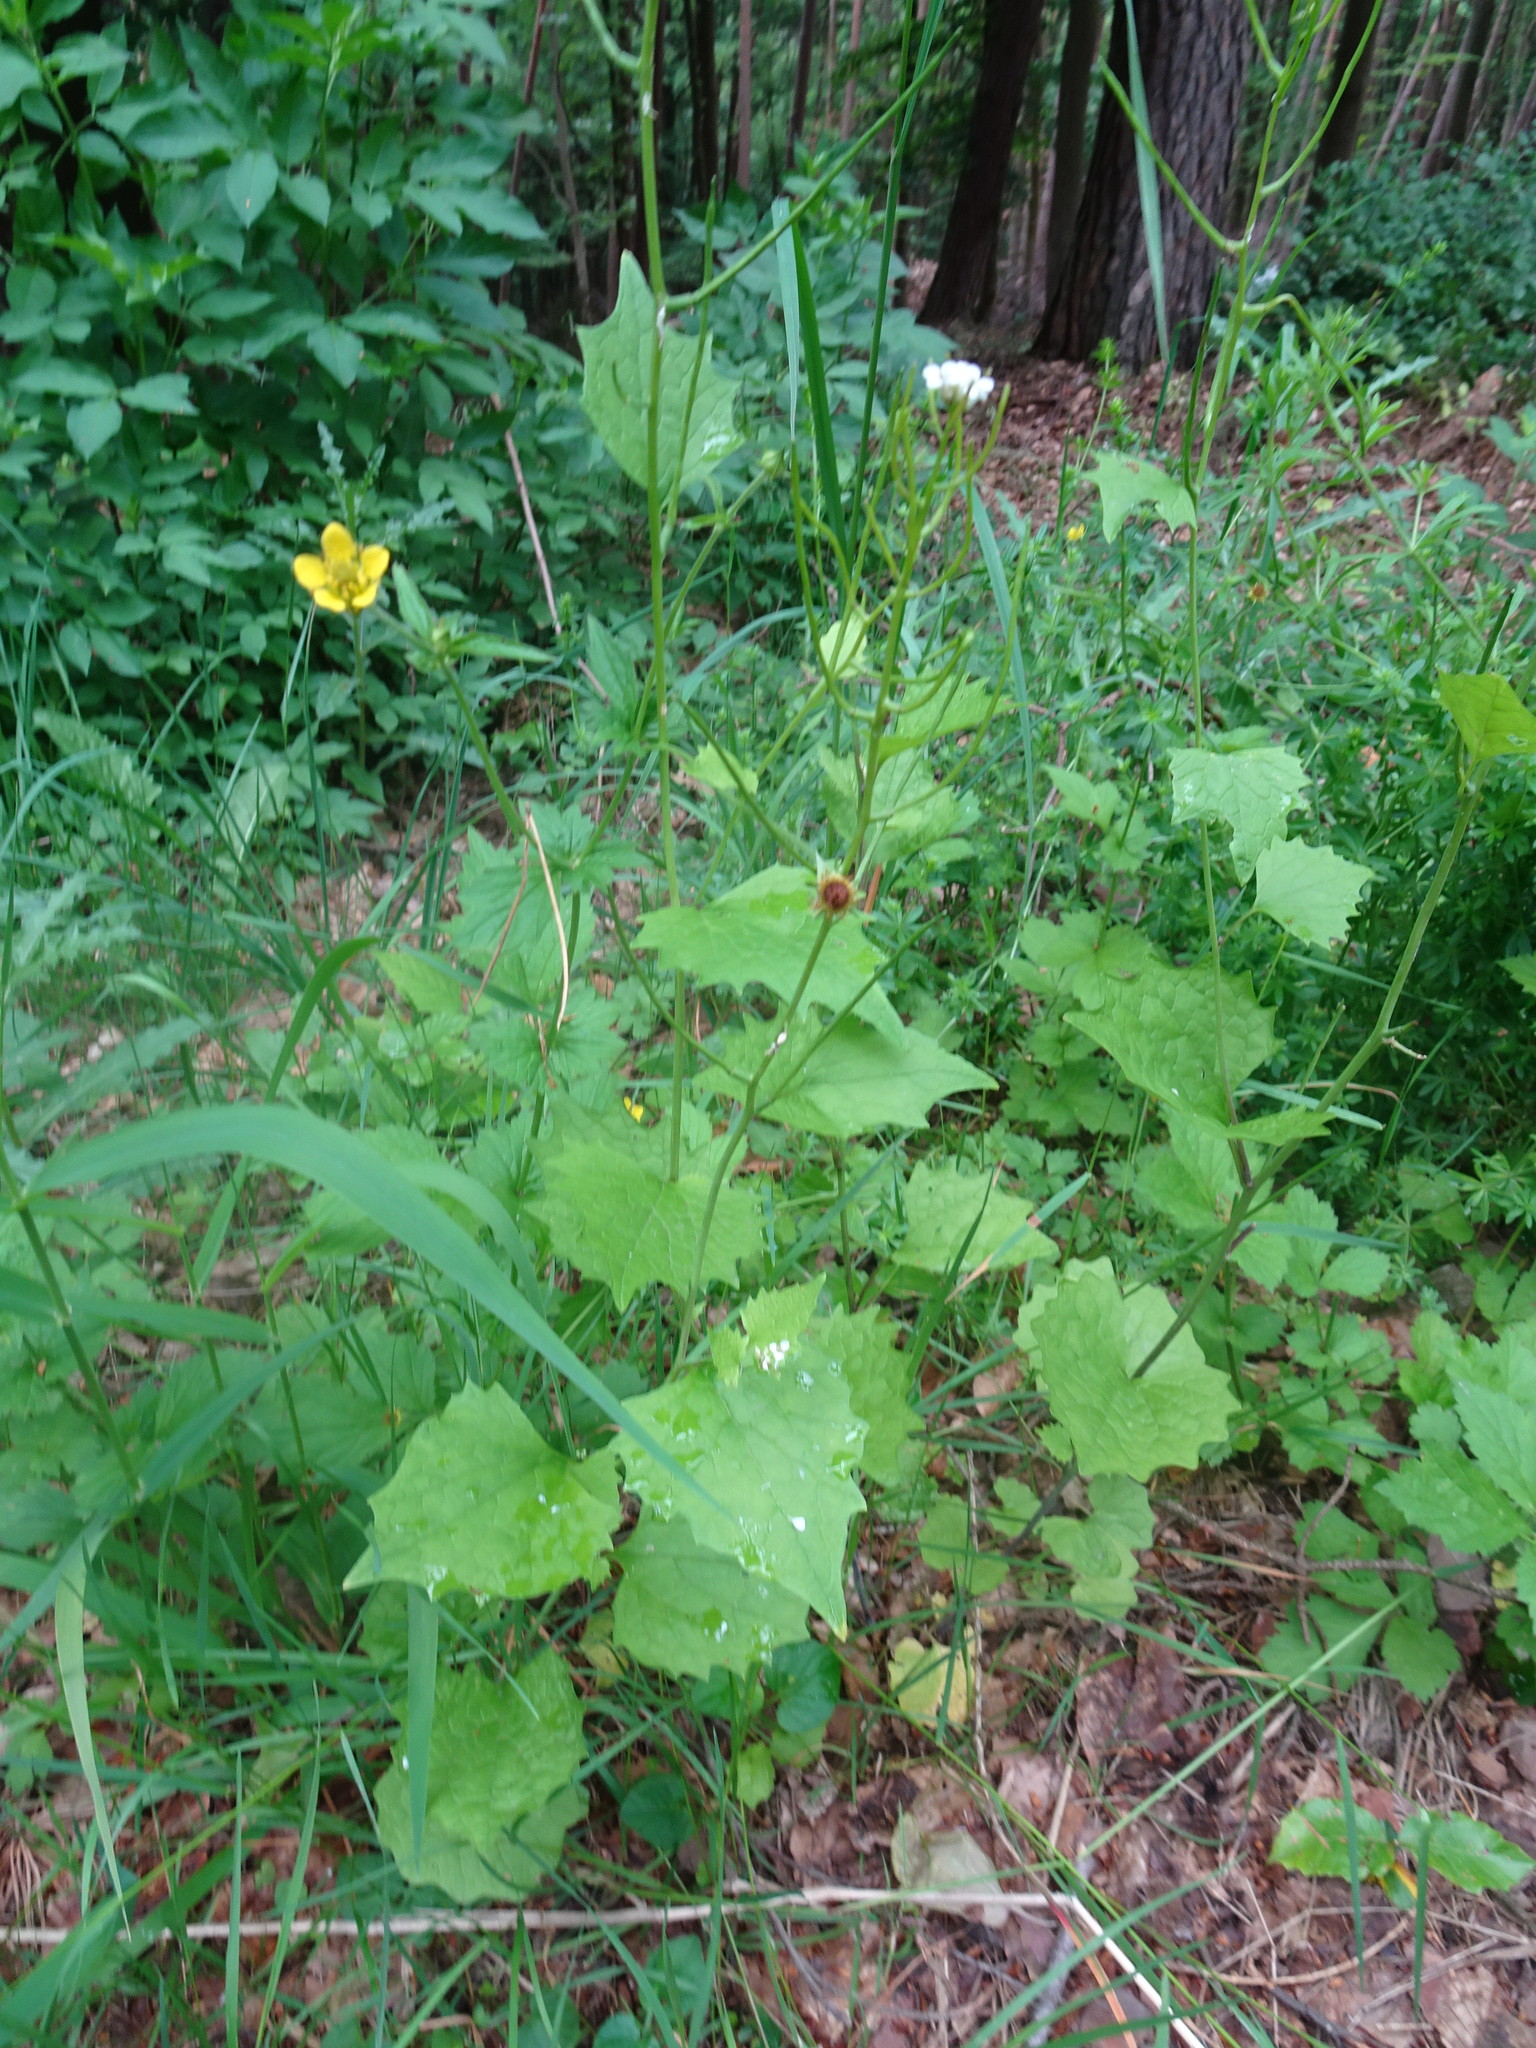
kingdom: Plantae
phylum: Tracheophyta
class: Magnoliopsida
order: Brassicales
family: Brassicaceae
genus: Alliaria
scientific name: Alliaria petiolata
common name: Garlic mustard
